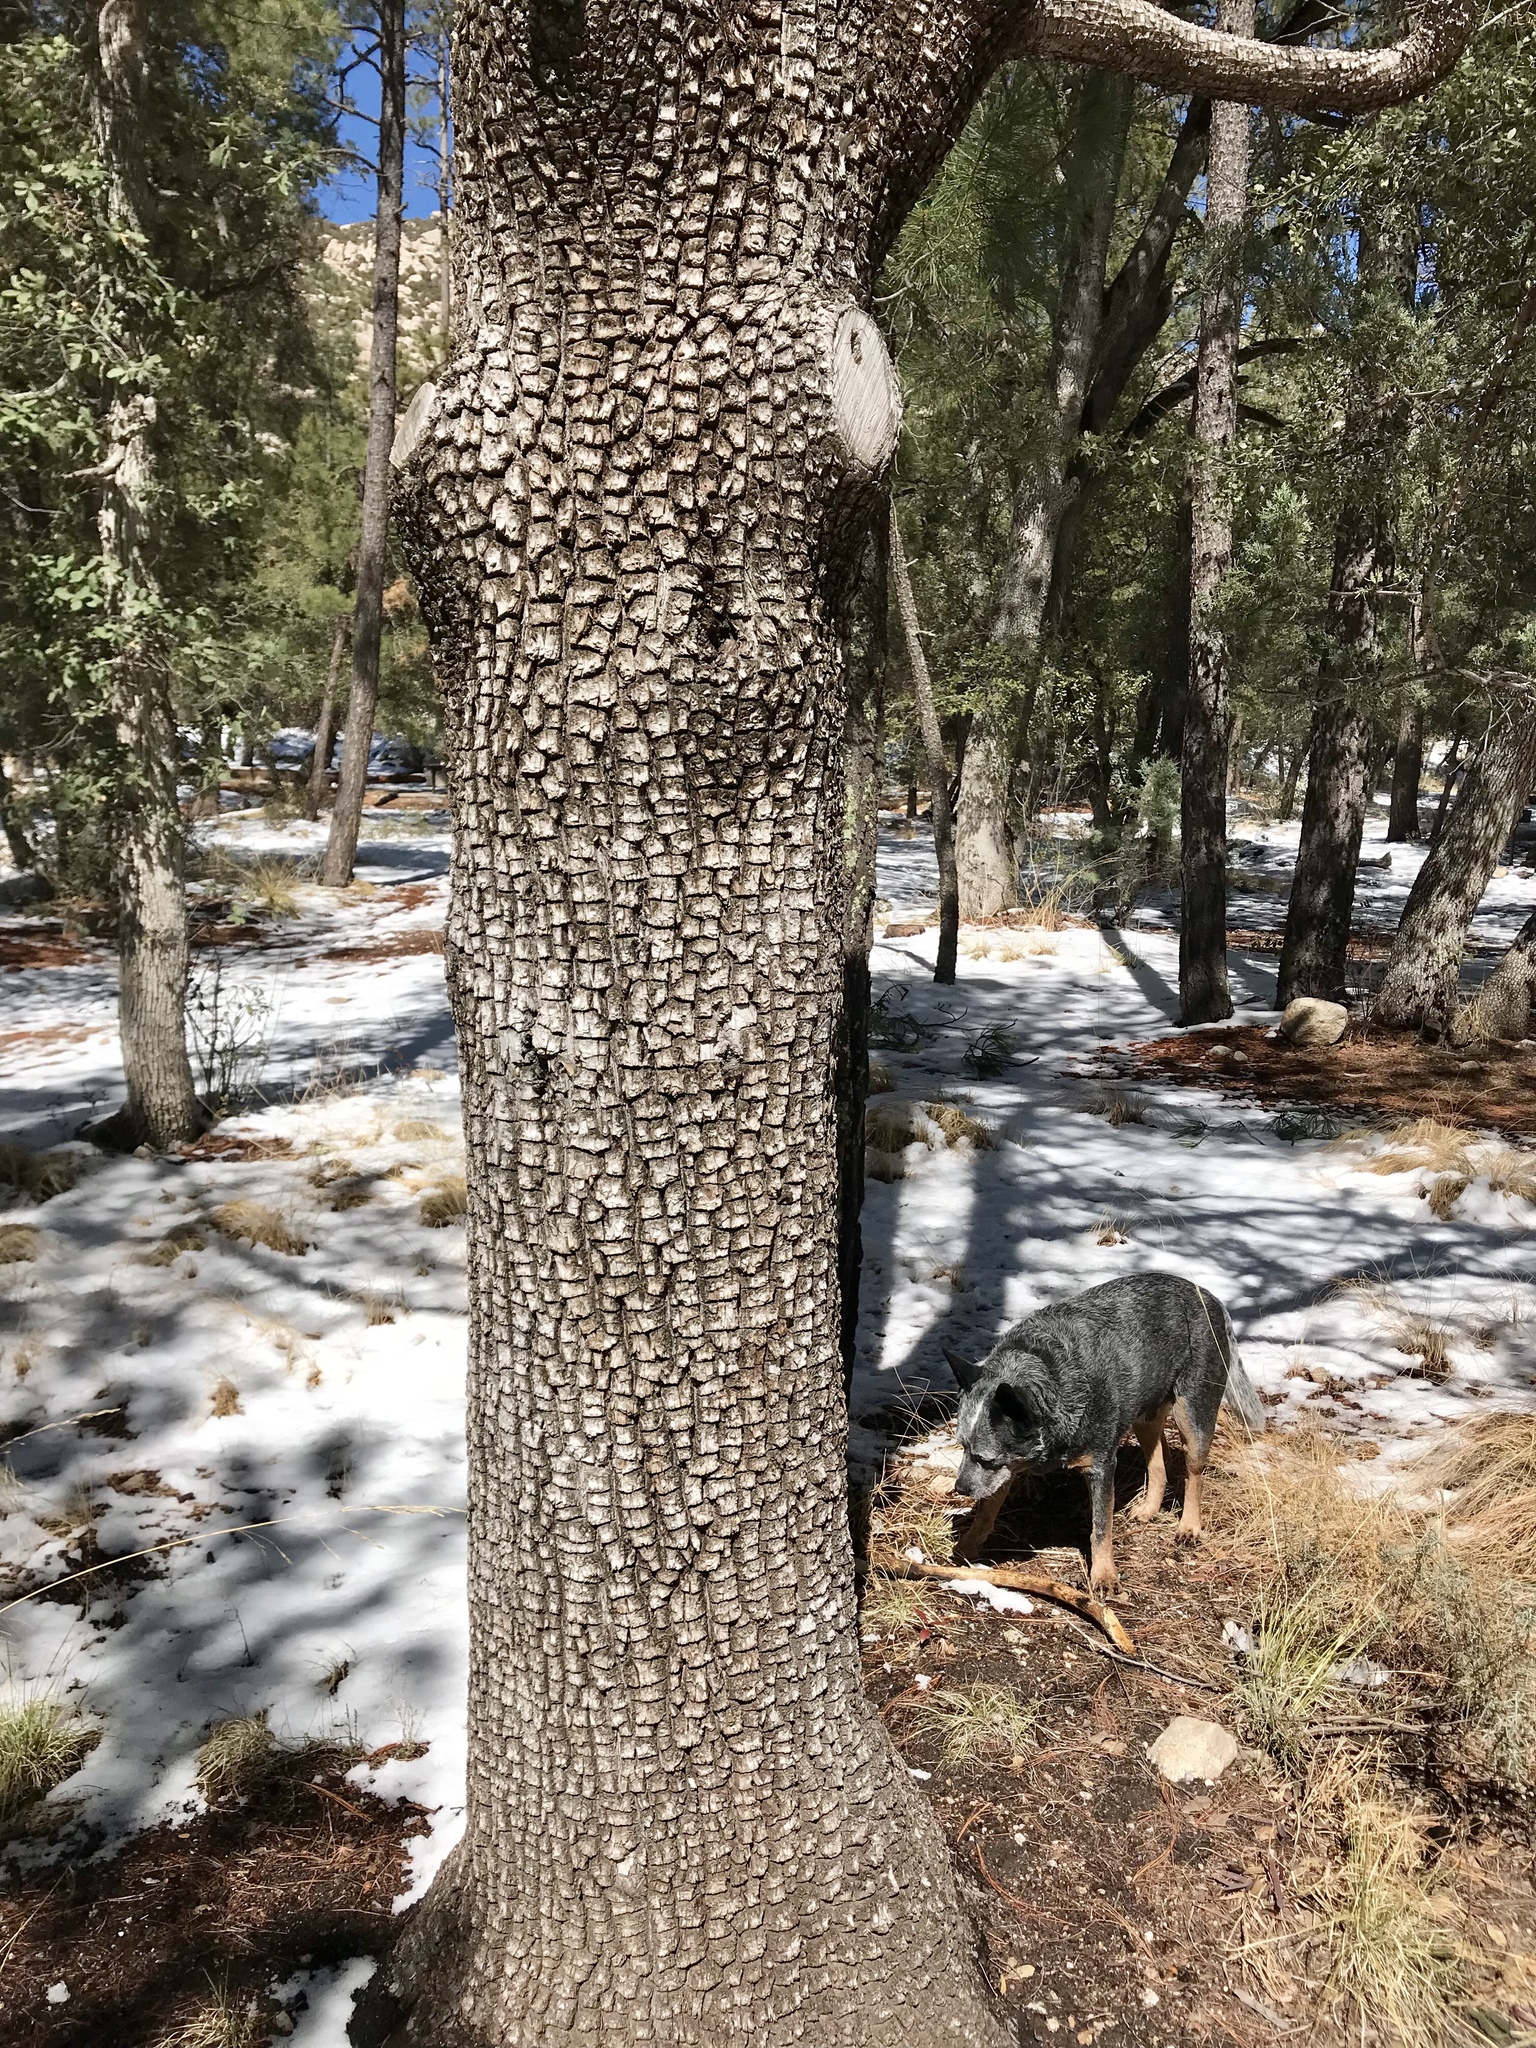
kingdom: Plantae
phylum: Tracheophyta
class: Pinopsida
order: Pinales
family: Cupressaceae
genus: Juniperus
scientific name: Juniperus deppeana
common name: Alligator juniper
